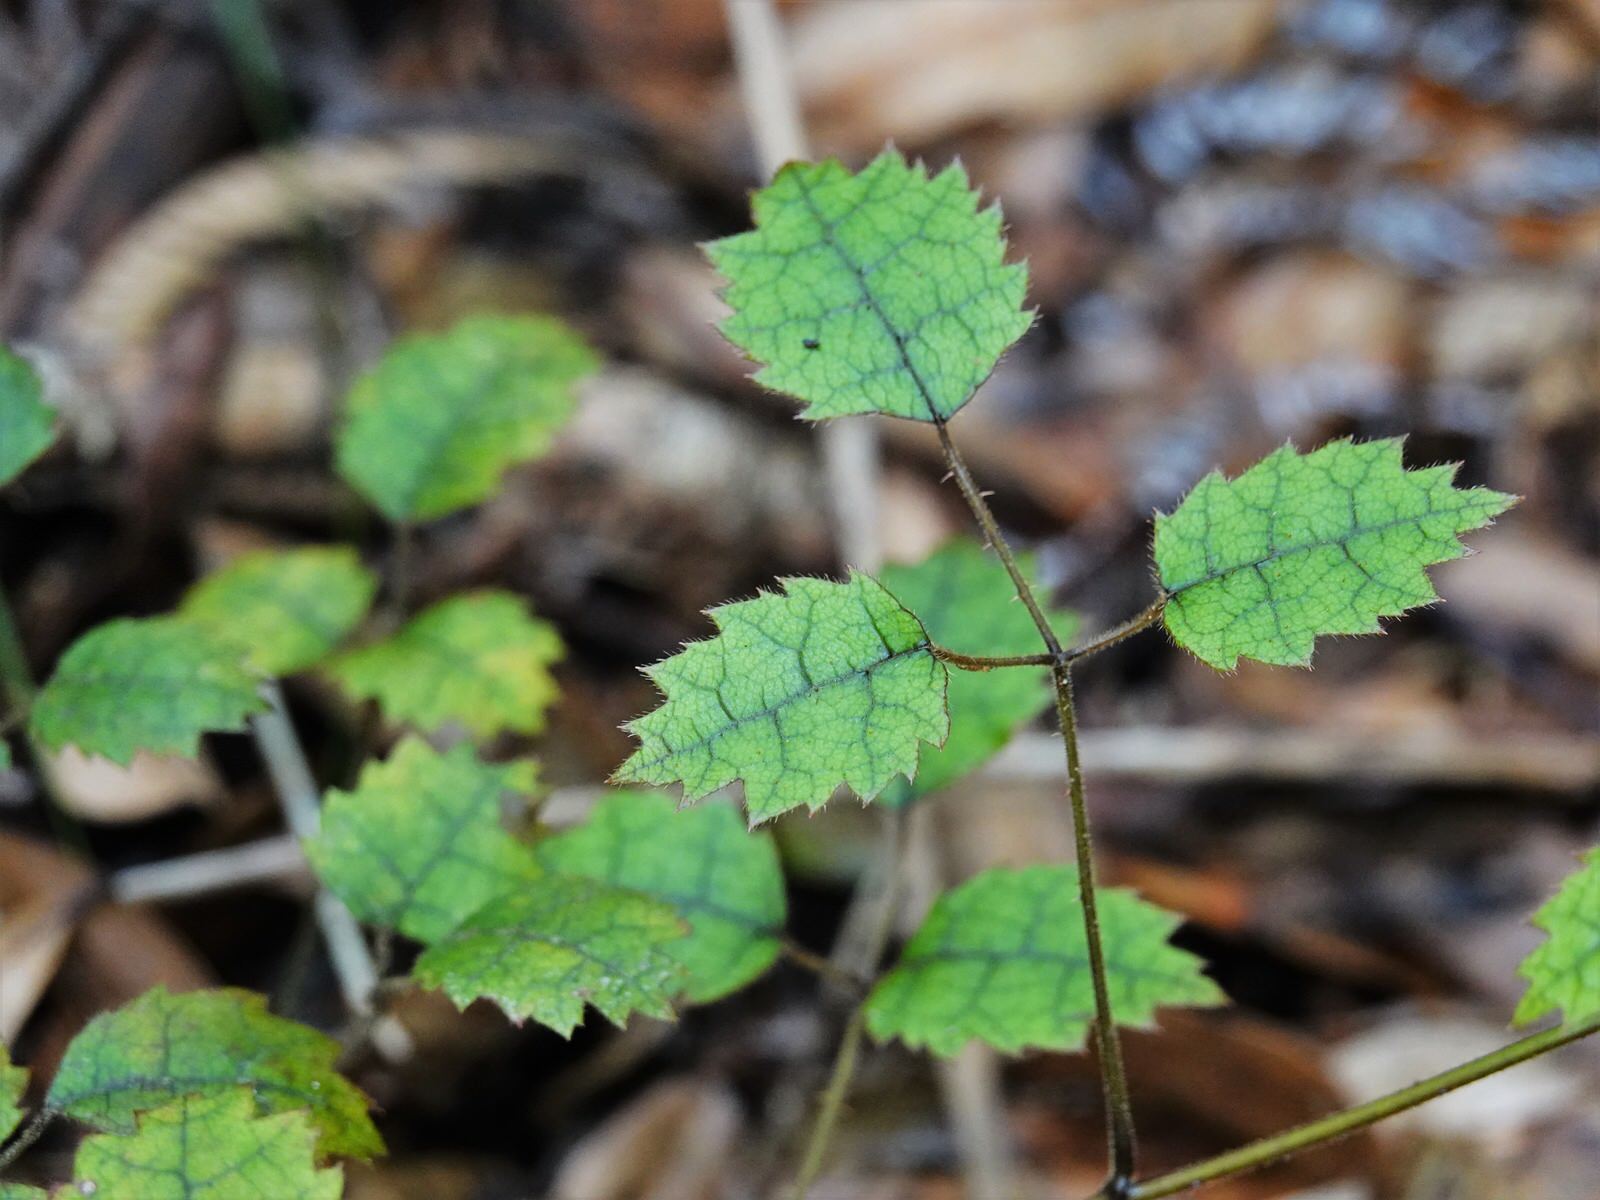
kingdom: Plantae
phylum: Tracheophyta
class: Magnoliopsida
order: Rosales
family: Rosaceae
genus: Rubus
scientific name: Rubus australis
